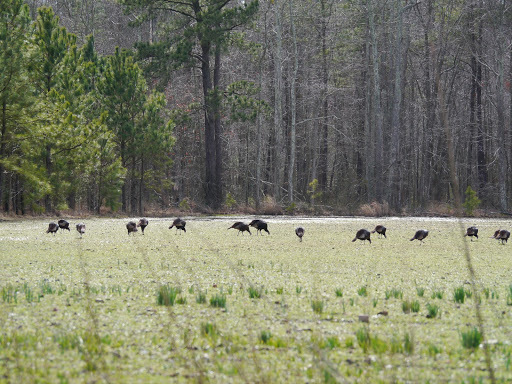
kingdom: Animalia
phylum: Chordata
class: Aves
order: Galliformes
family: Phasianidae
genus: Meleagris
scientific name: Meleagris gallopavo
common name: Wild turkey
